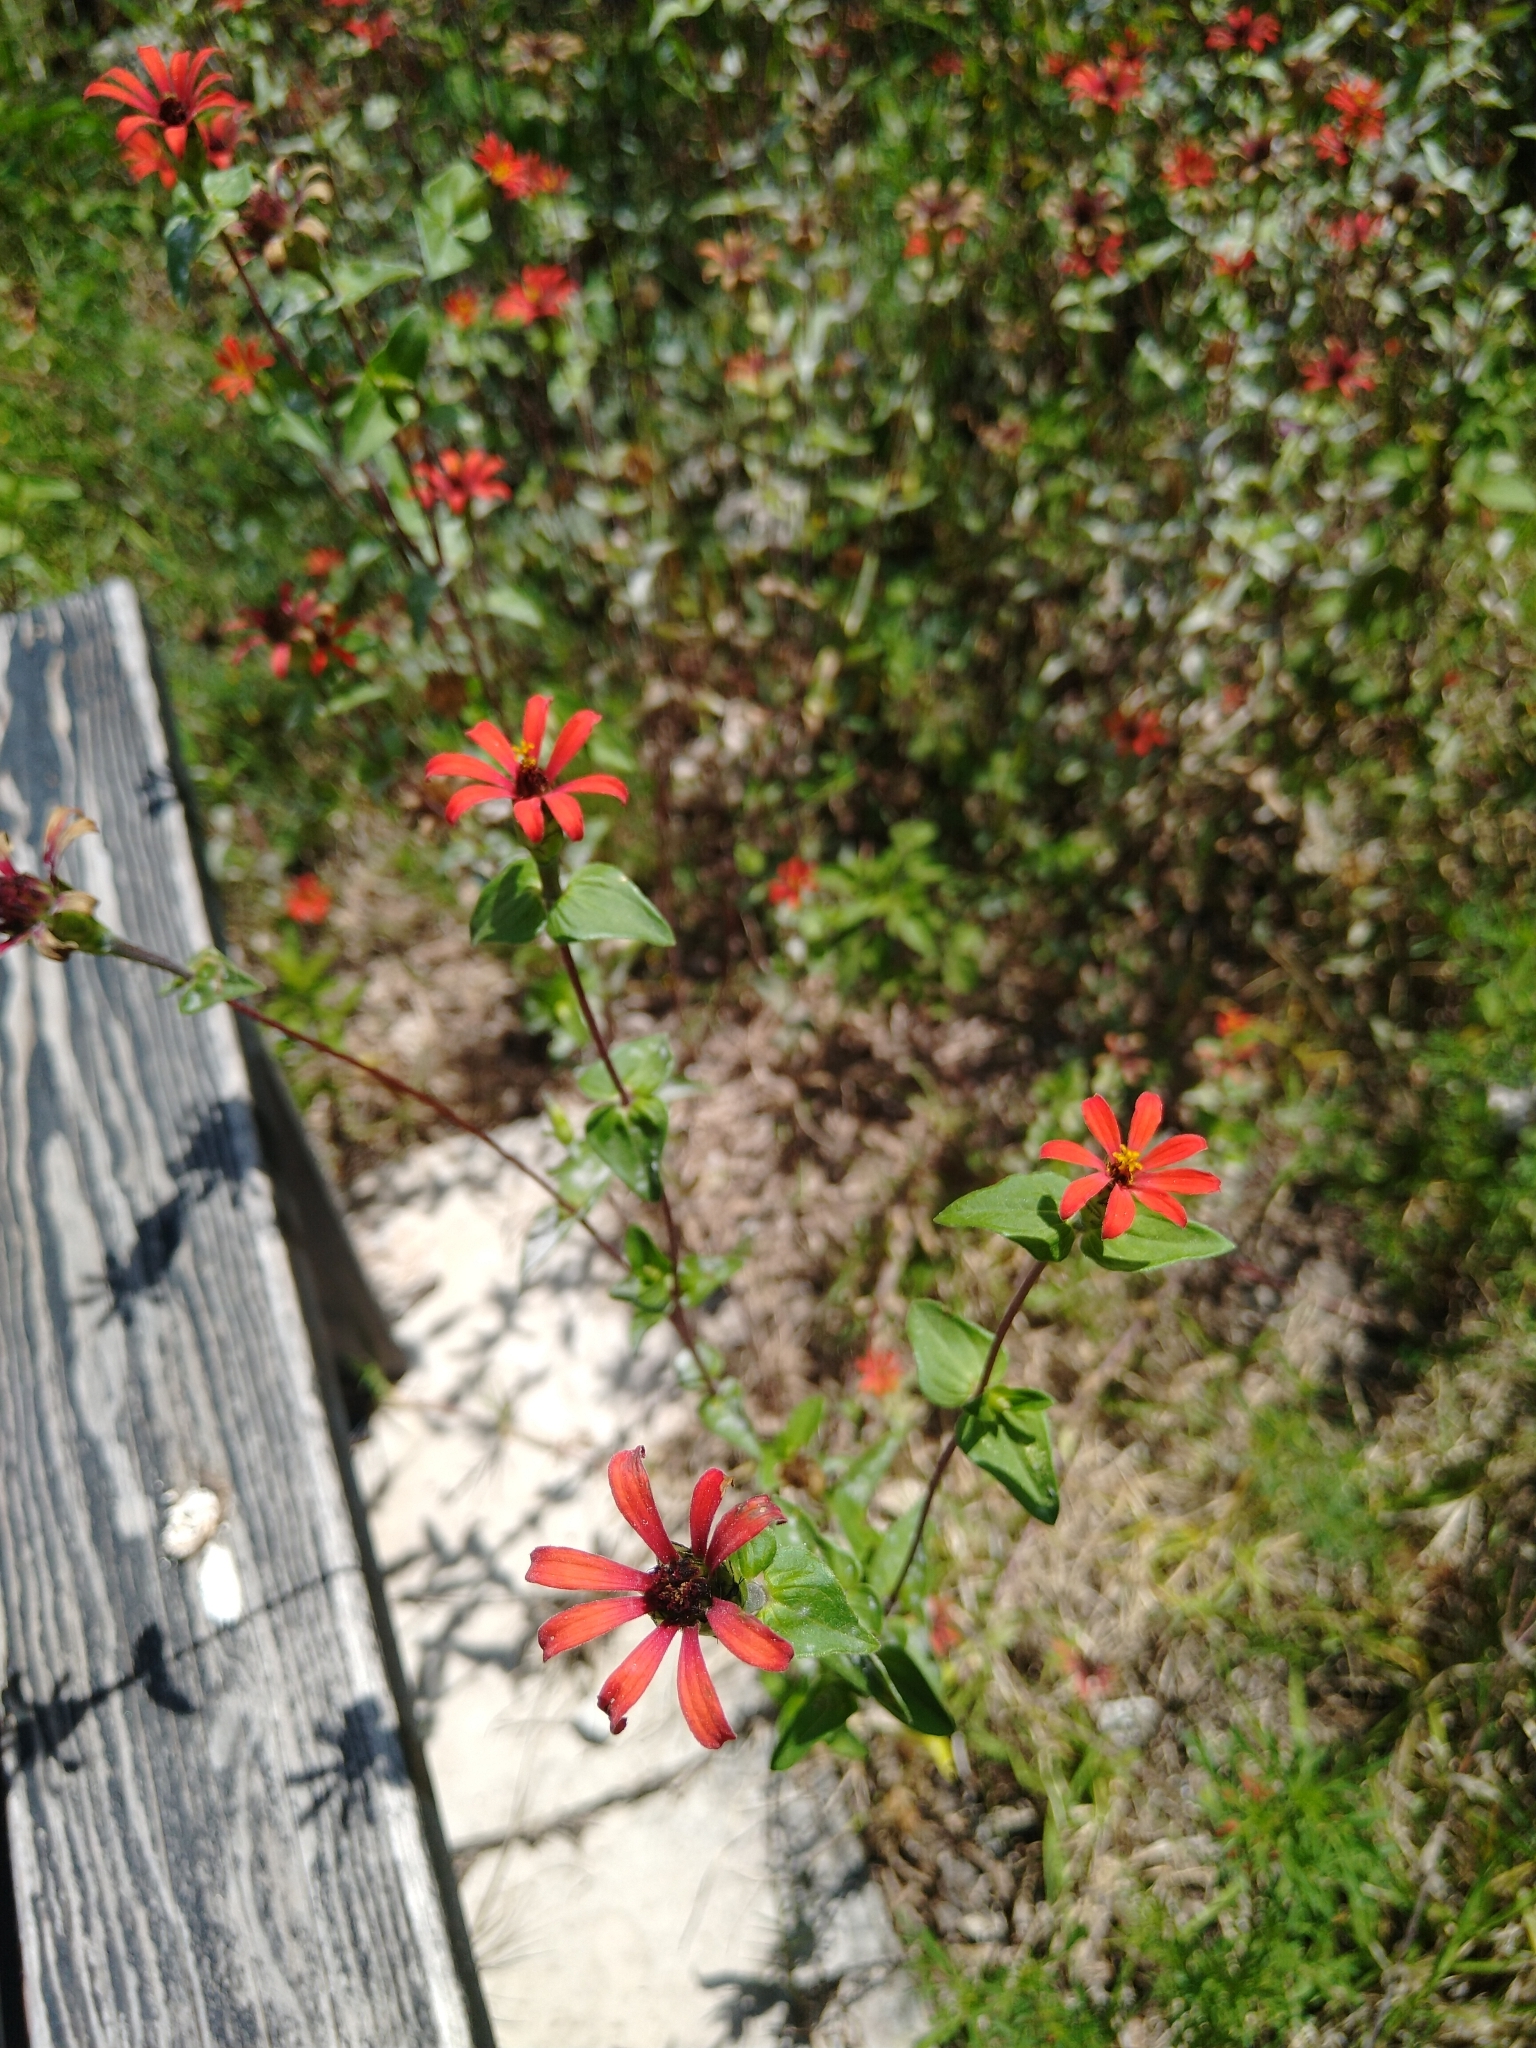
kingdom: Plantae
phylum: Tracheophyta
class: Magnoliopsida
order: Asterales
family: Asteraceae
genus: Zinnia
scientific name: Zinnia peruviana
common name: Peruvian zinnia
